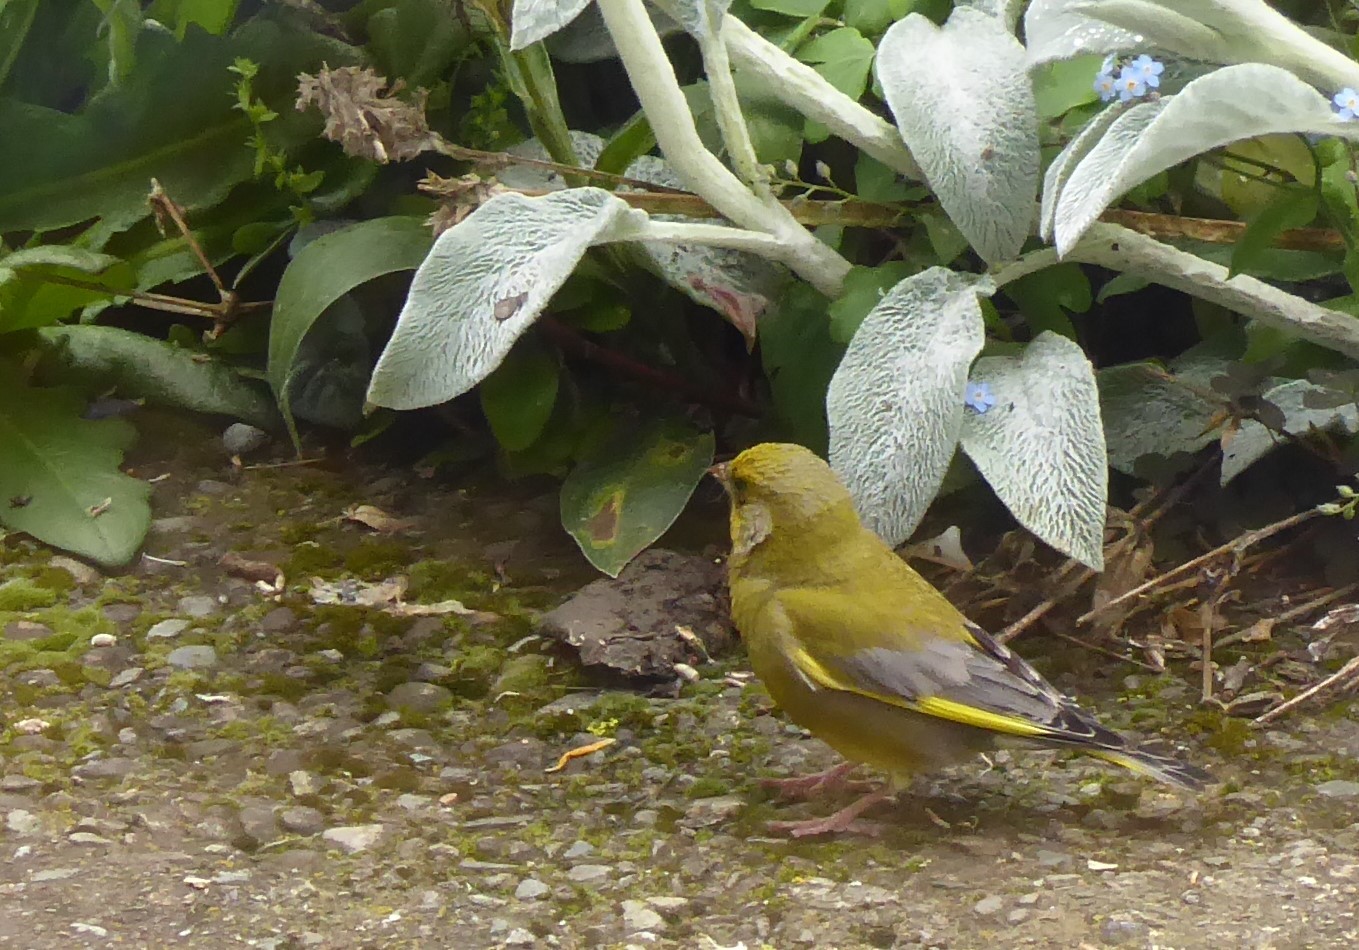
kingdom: Plantae
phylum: Tracheophyta
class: Liliopsida
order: Poales
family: Poaceae
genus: Chloris
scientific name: Chloris chloris
